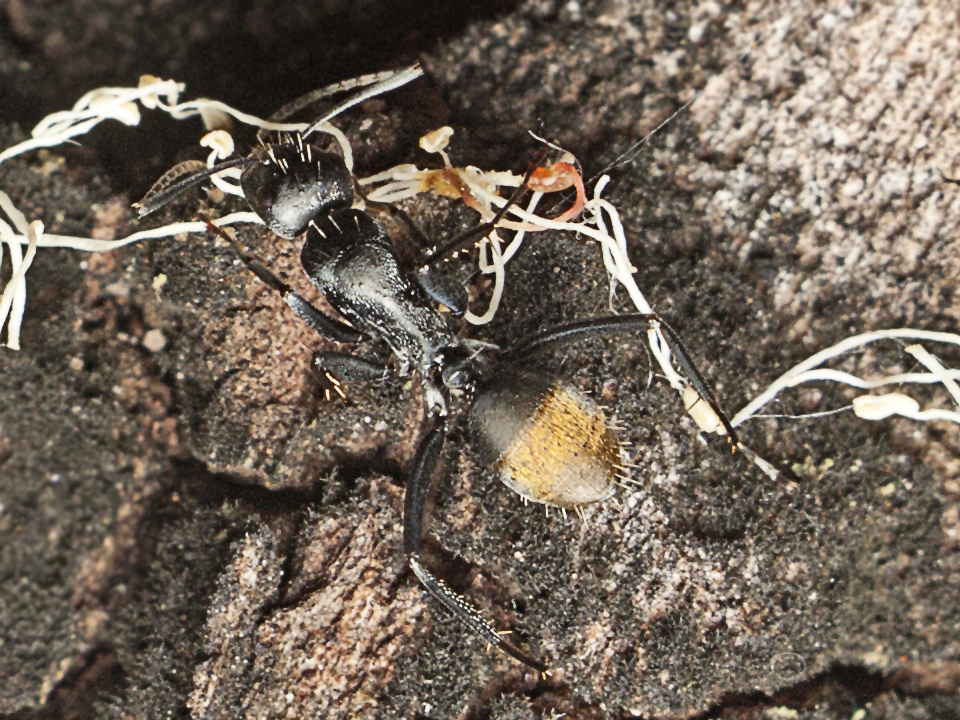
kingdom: Animalia
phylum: Arthropoda
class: Insecta
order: Hymenoptera
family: Formicidae
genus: Camponotus
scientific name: Camponotus aeneopilosus
